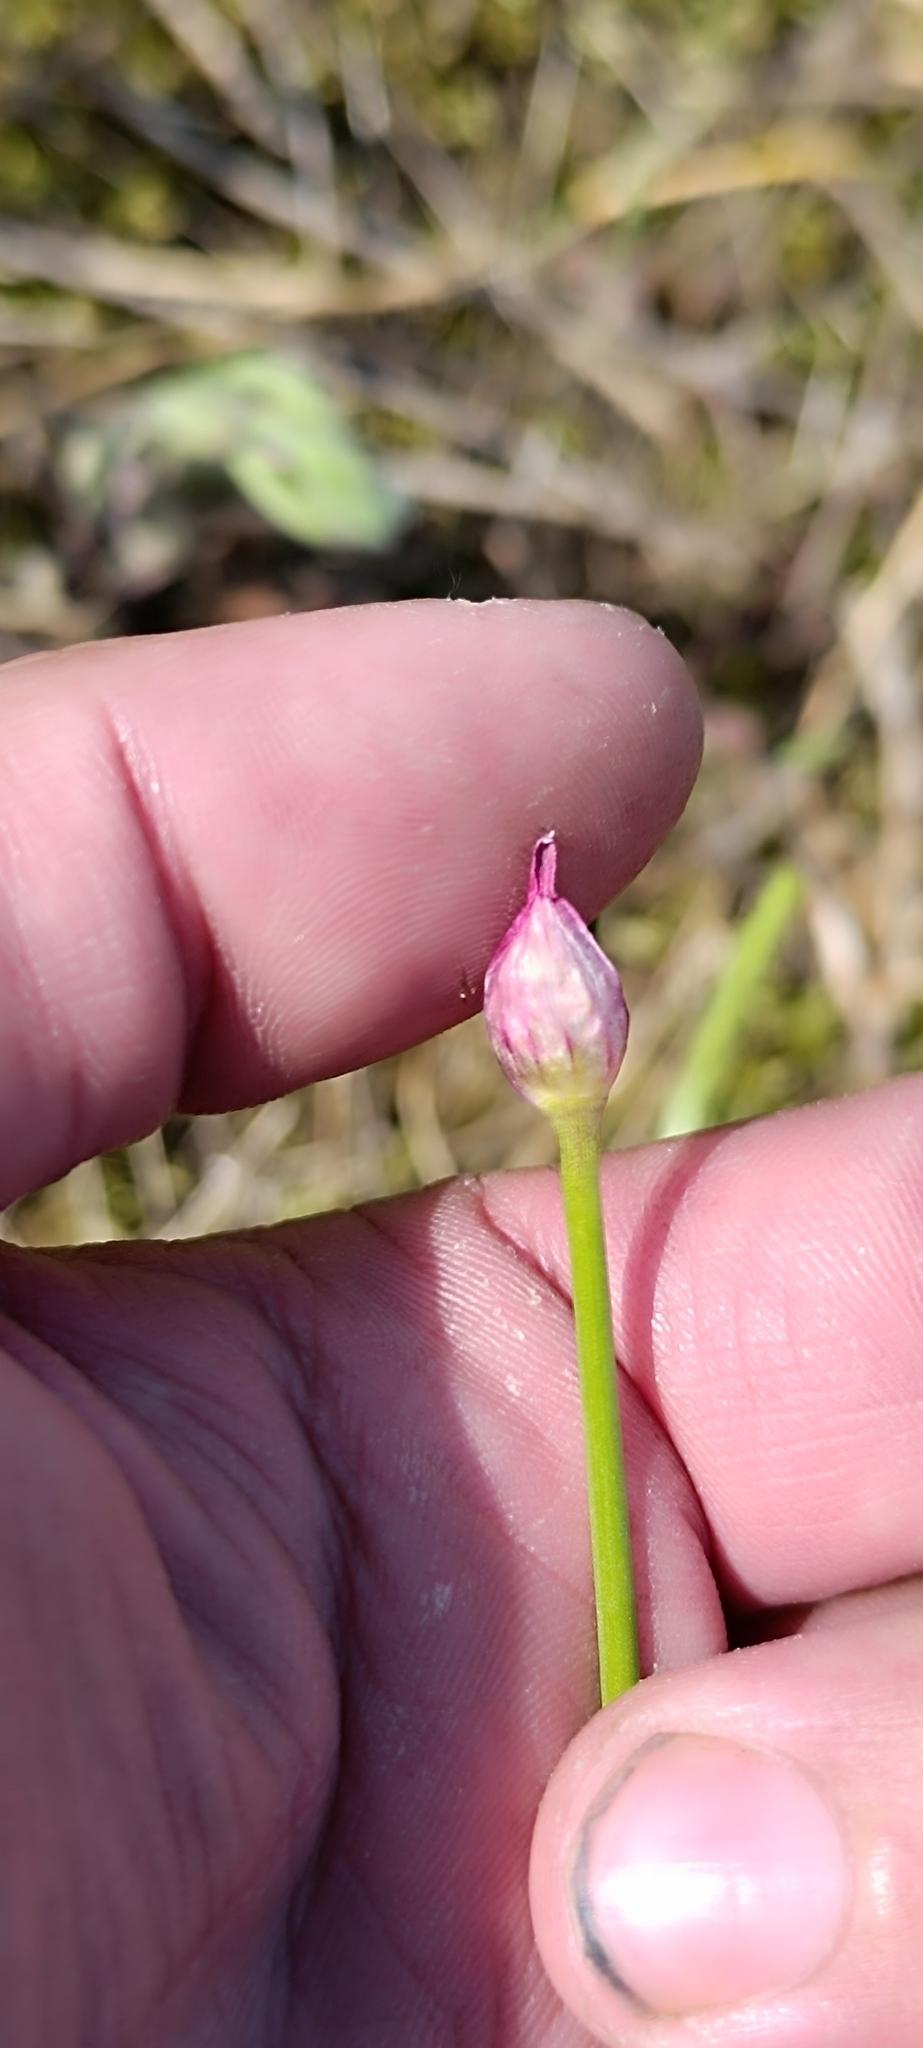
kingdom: Plantae
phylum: Tracheophyta
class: Liliopsida
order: Asparagales
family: Amaryllidaceae
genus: Allium
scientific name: Allium schoenoprasum
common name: Chives
